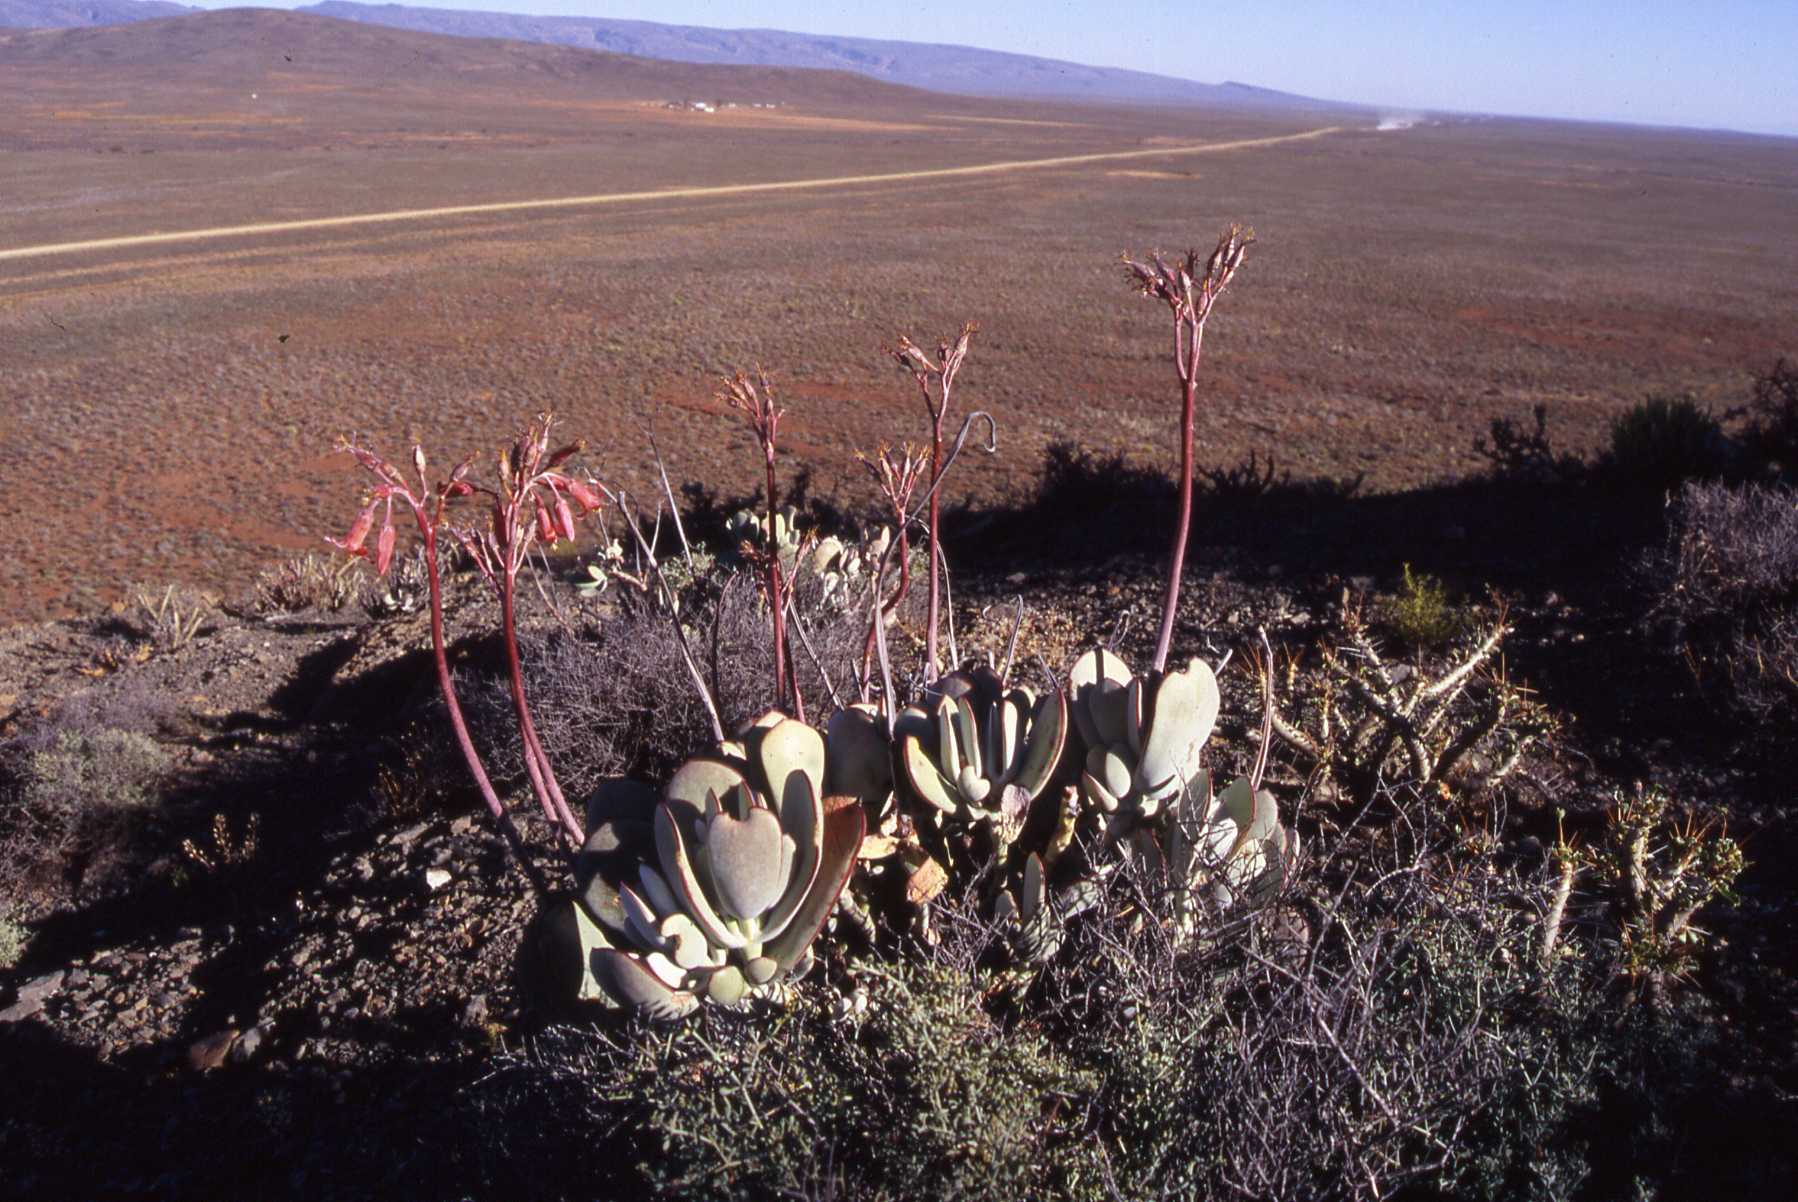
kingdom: Plantae
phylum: Tracheophyta
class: Magnoliopsida
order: Saxifragales
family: Crassulaceae
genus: Cotyledon
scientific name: Cotyledon orbiculata
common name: Pig's ear
